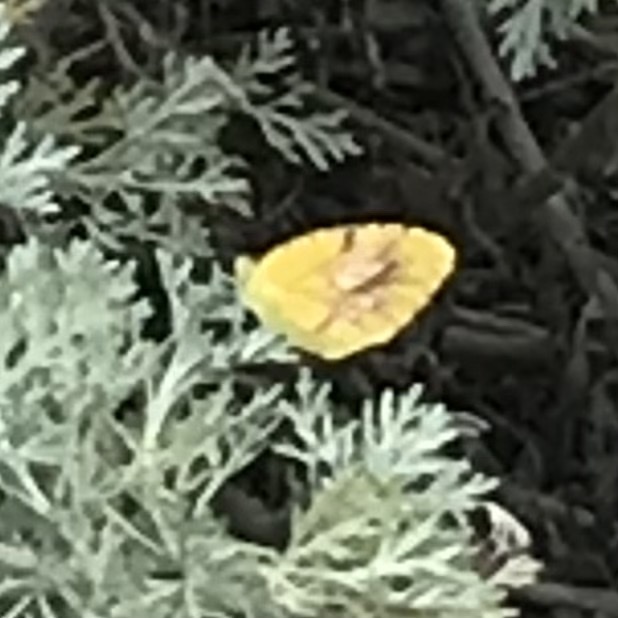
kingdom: Animalia
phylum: Arthropoda
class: Insecta
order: Lepidoptera
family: Pieridae
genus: Abaeis
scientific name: Abaeis nicippe
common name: Sleepy orange
